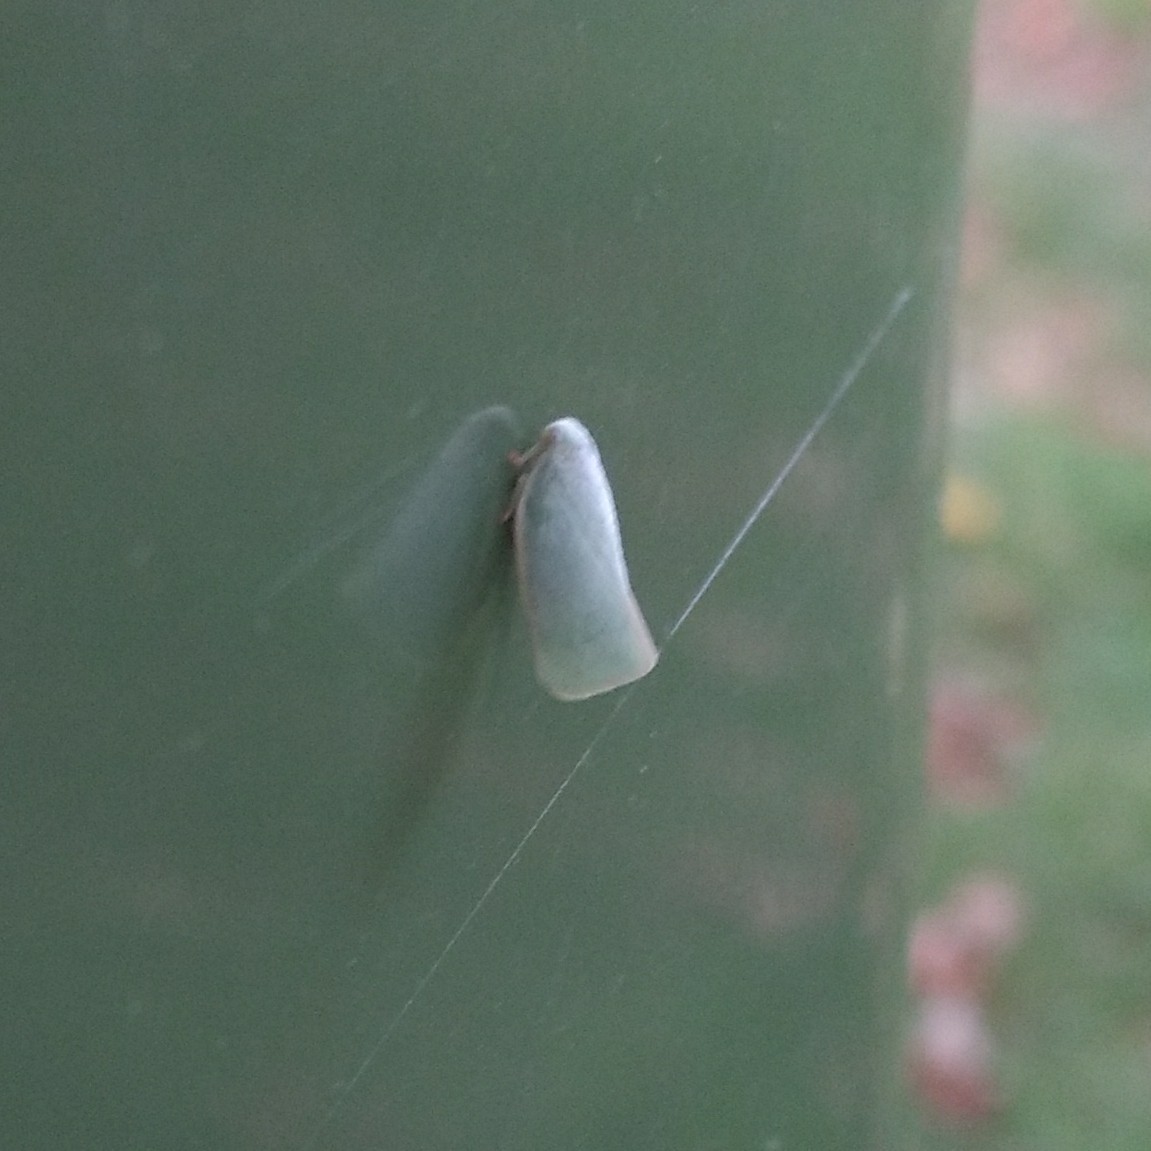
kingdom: Animalia
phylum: Arthropoda
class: Insecta
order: Hemiptera
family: Flatidae
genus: Flatormenis
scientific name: Flatormenis proxima
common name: Northern flatid planthopper
